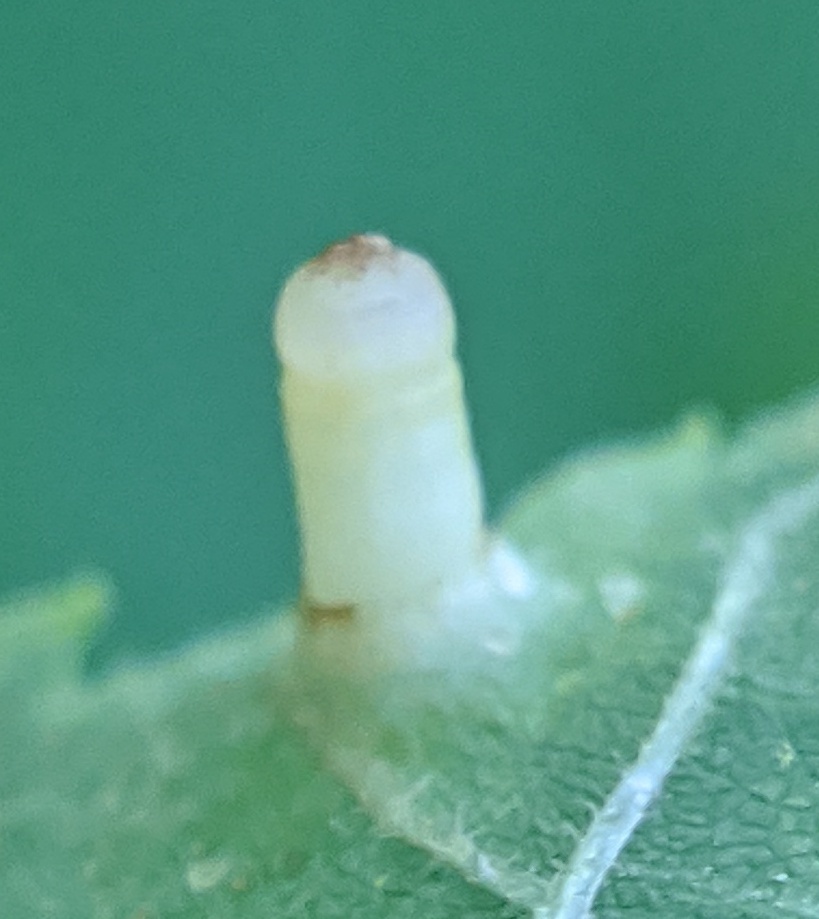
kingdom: Animalia
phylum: Arthropoda
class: Insecta
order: Diptera
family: Cecidomyiidae
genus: Caryomyia
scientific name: Caryomyia tubicola
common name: Hickory bullet gall midge
